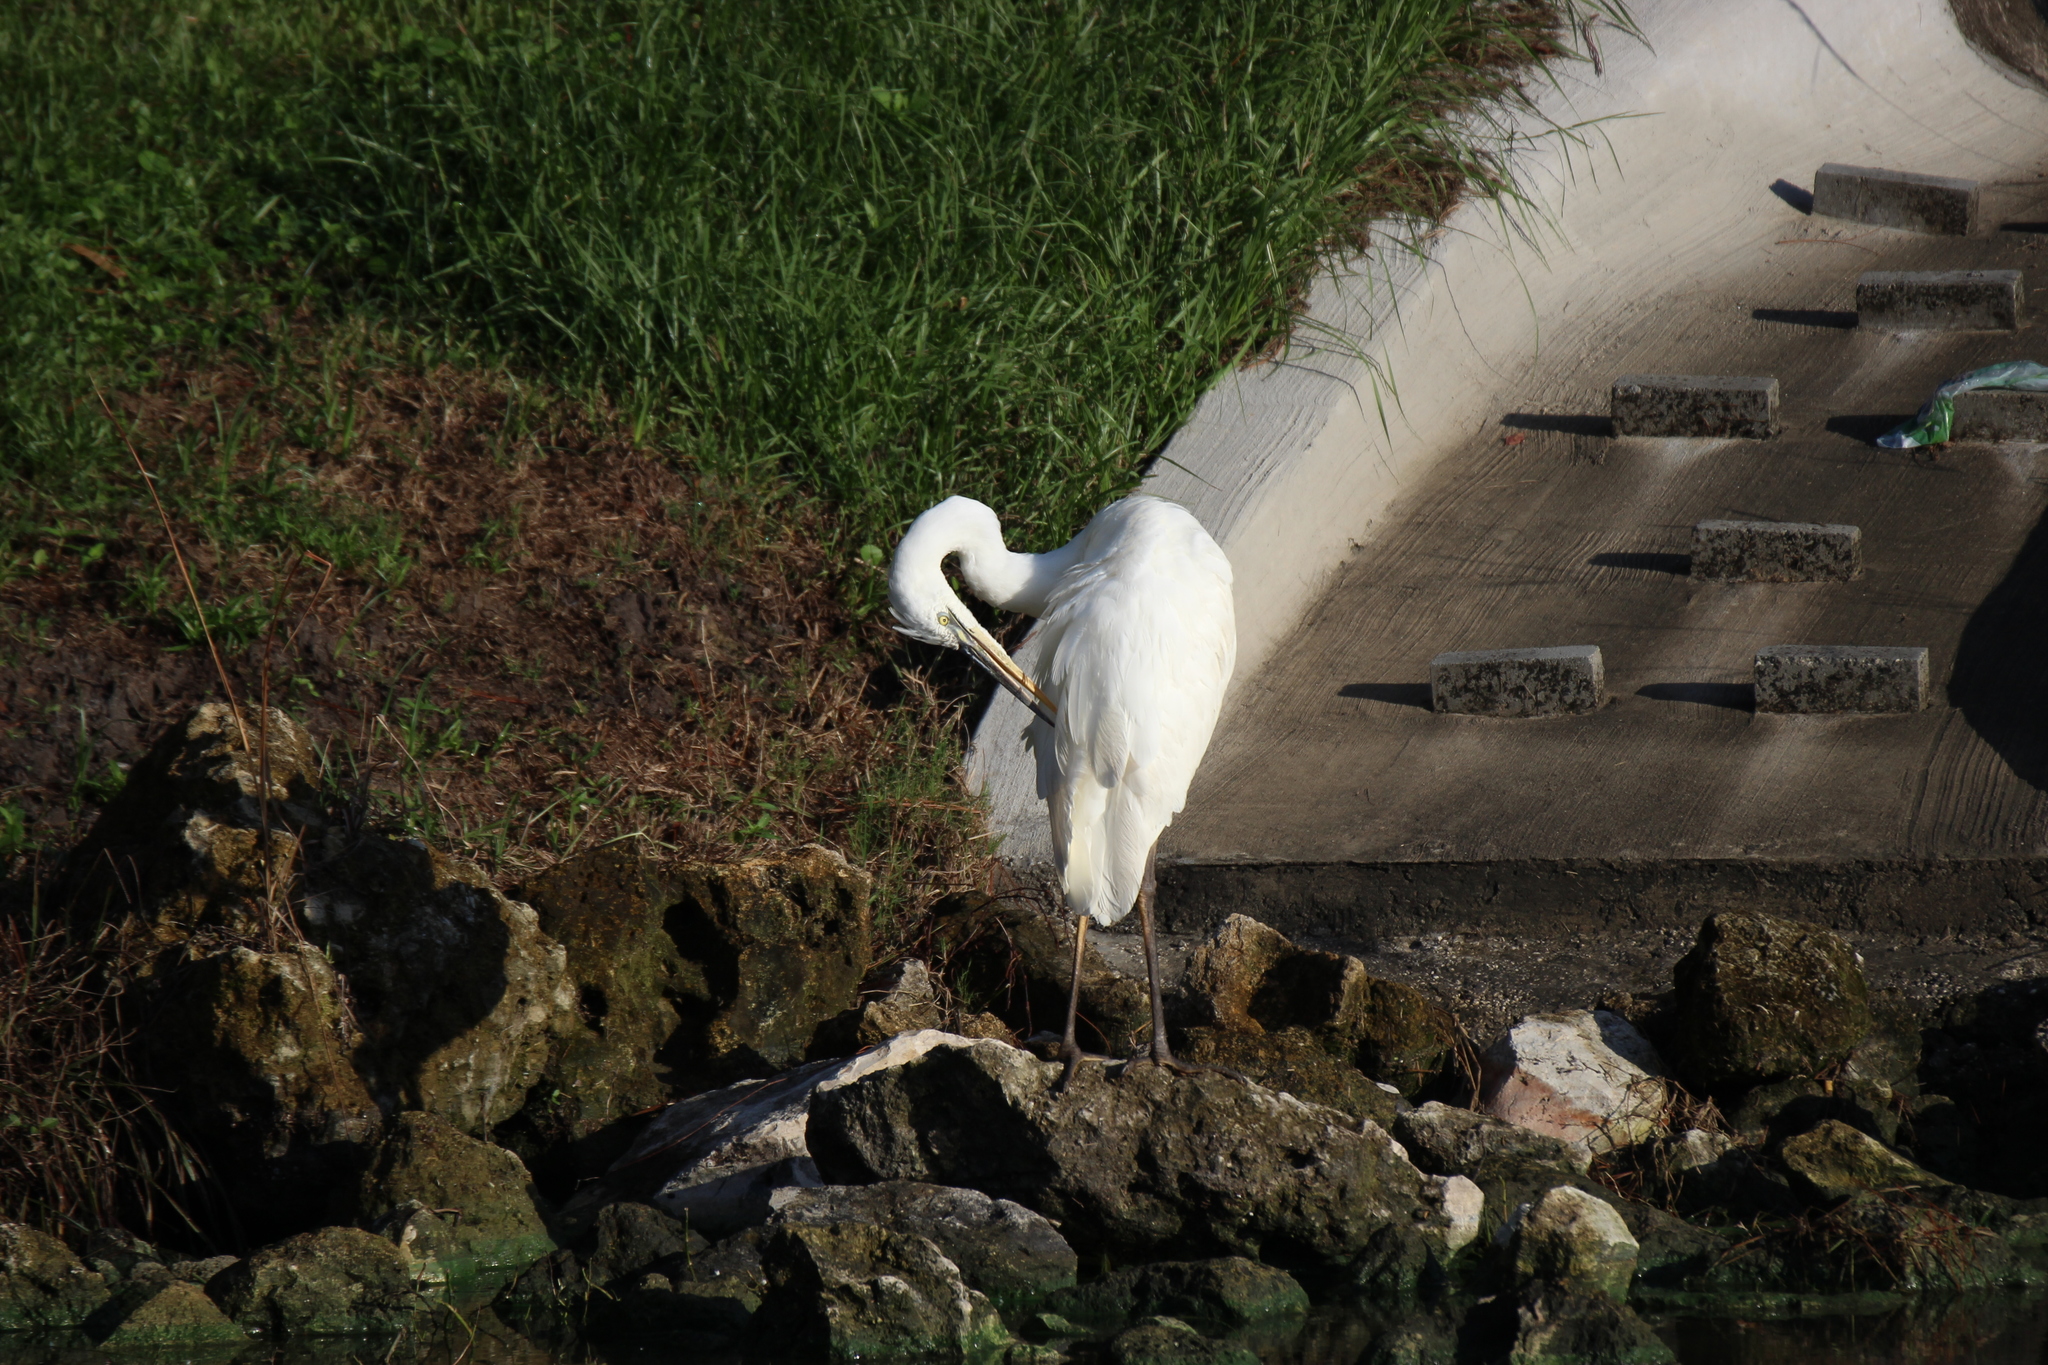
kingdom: Animalia
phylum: Chordata
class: Aves
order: Pelecaniformes
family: Ardeidae
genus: Ardea
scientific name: Ardea herodias
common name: Great blue heron
